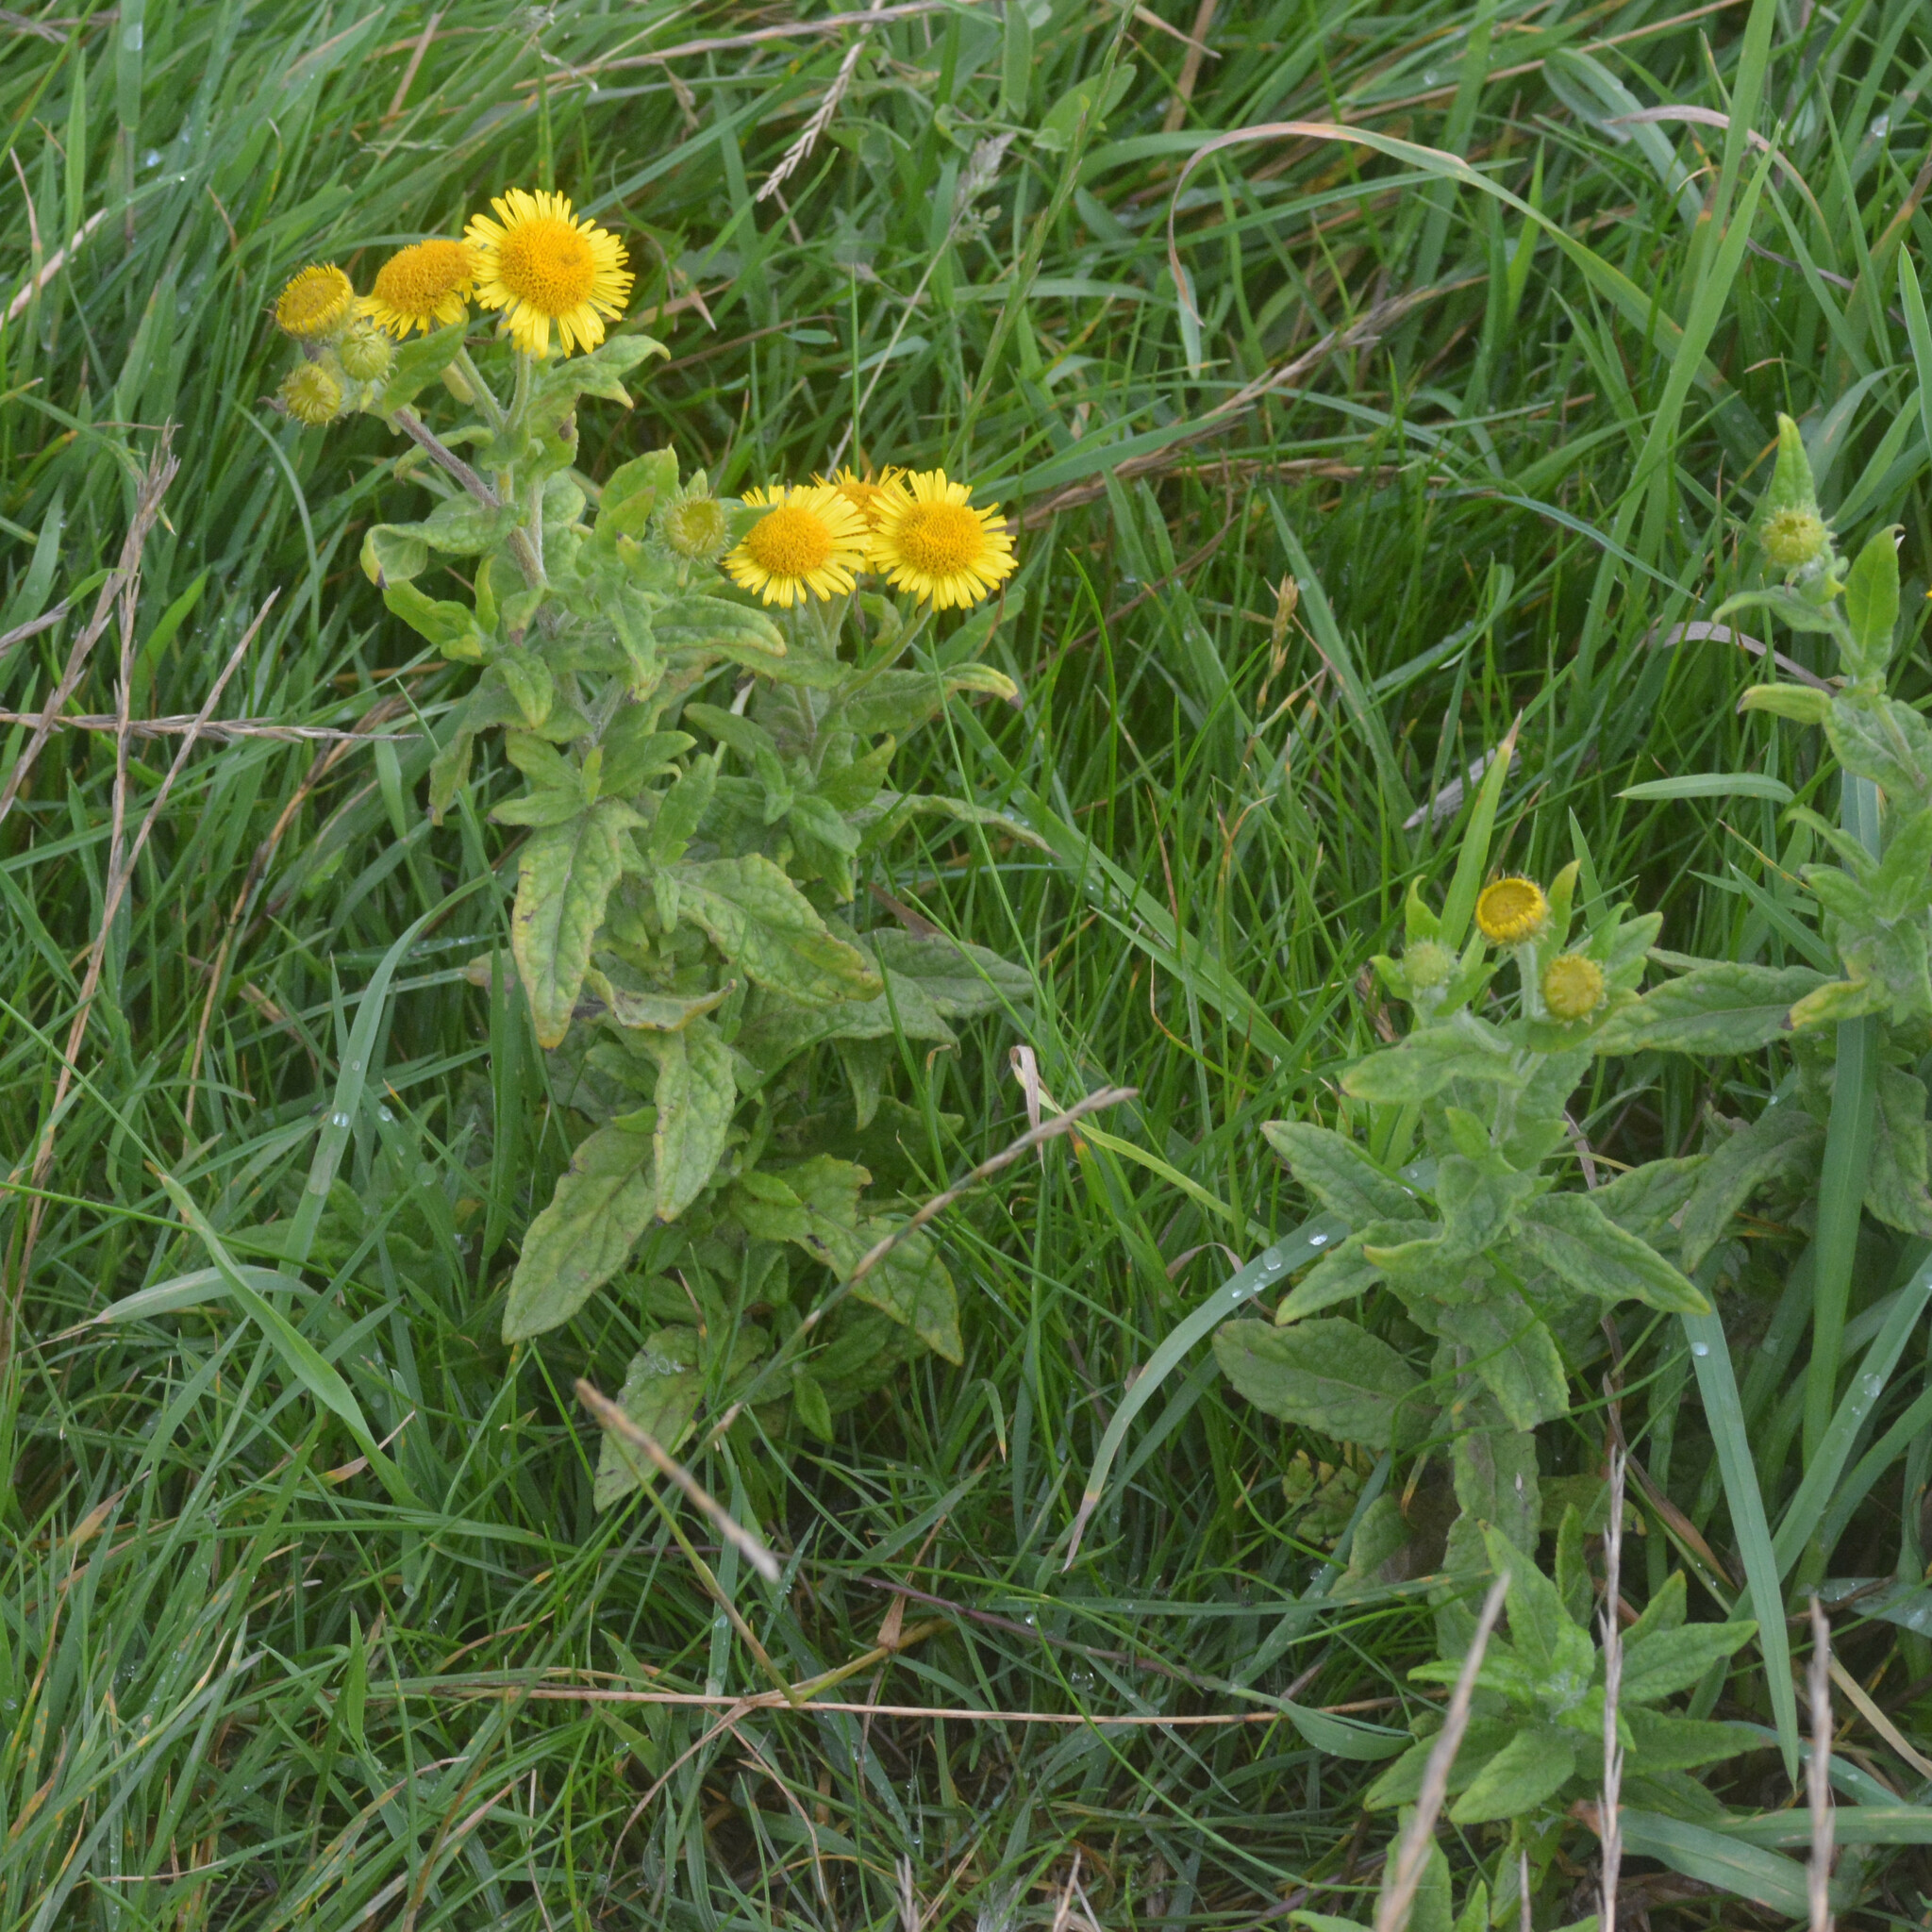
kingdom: Plantae
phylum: Tracheophyta
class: Magnoliopsida
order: Asterales
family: Asteraceae
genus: Pulicaria
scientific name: Pulicaria dysenterica
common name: Common fleabane
